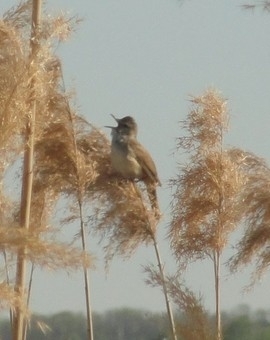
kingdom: Animalia
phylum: Chordata
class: Aves
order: Passeriformes
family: Acrocephalidae
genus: Acrocephalus
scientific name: Acrocephalus arundinaceus
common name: Great reed warbler
